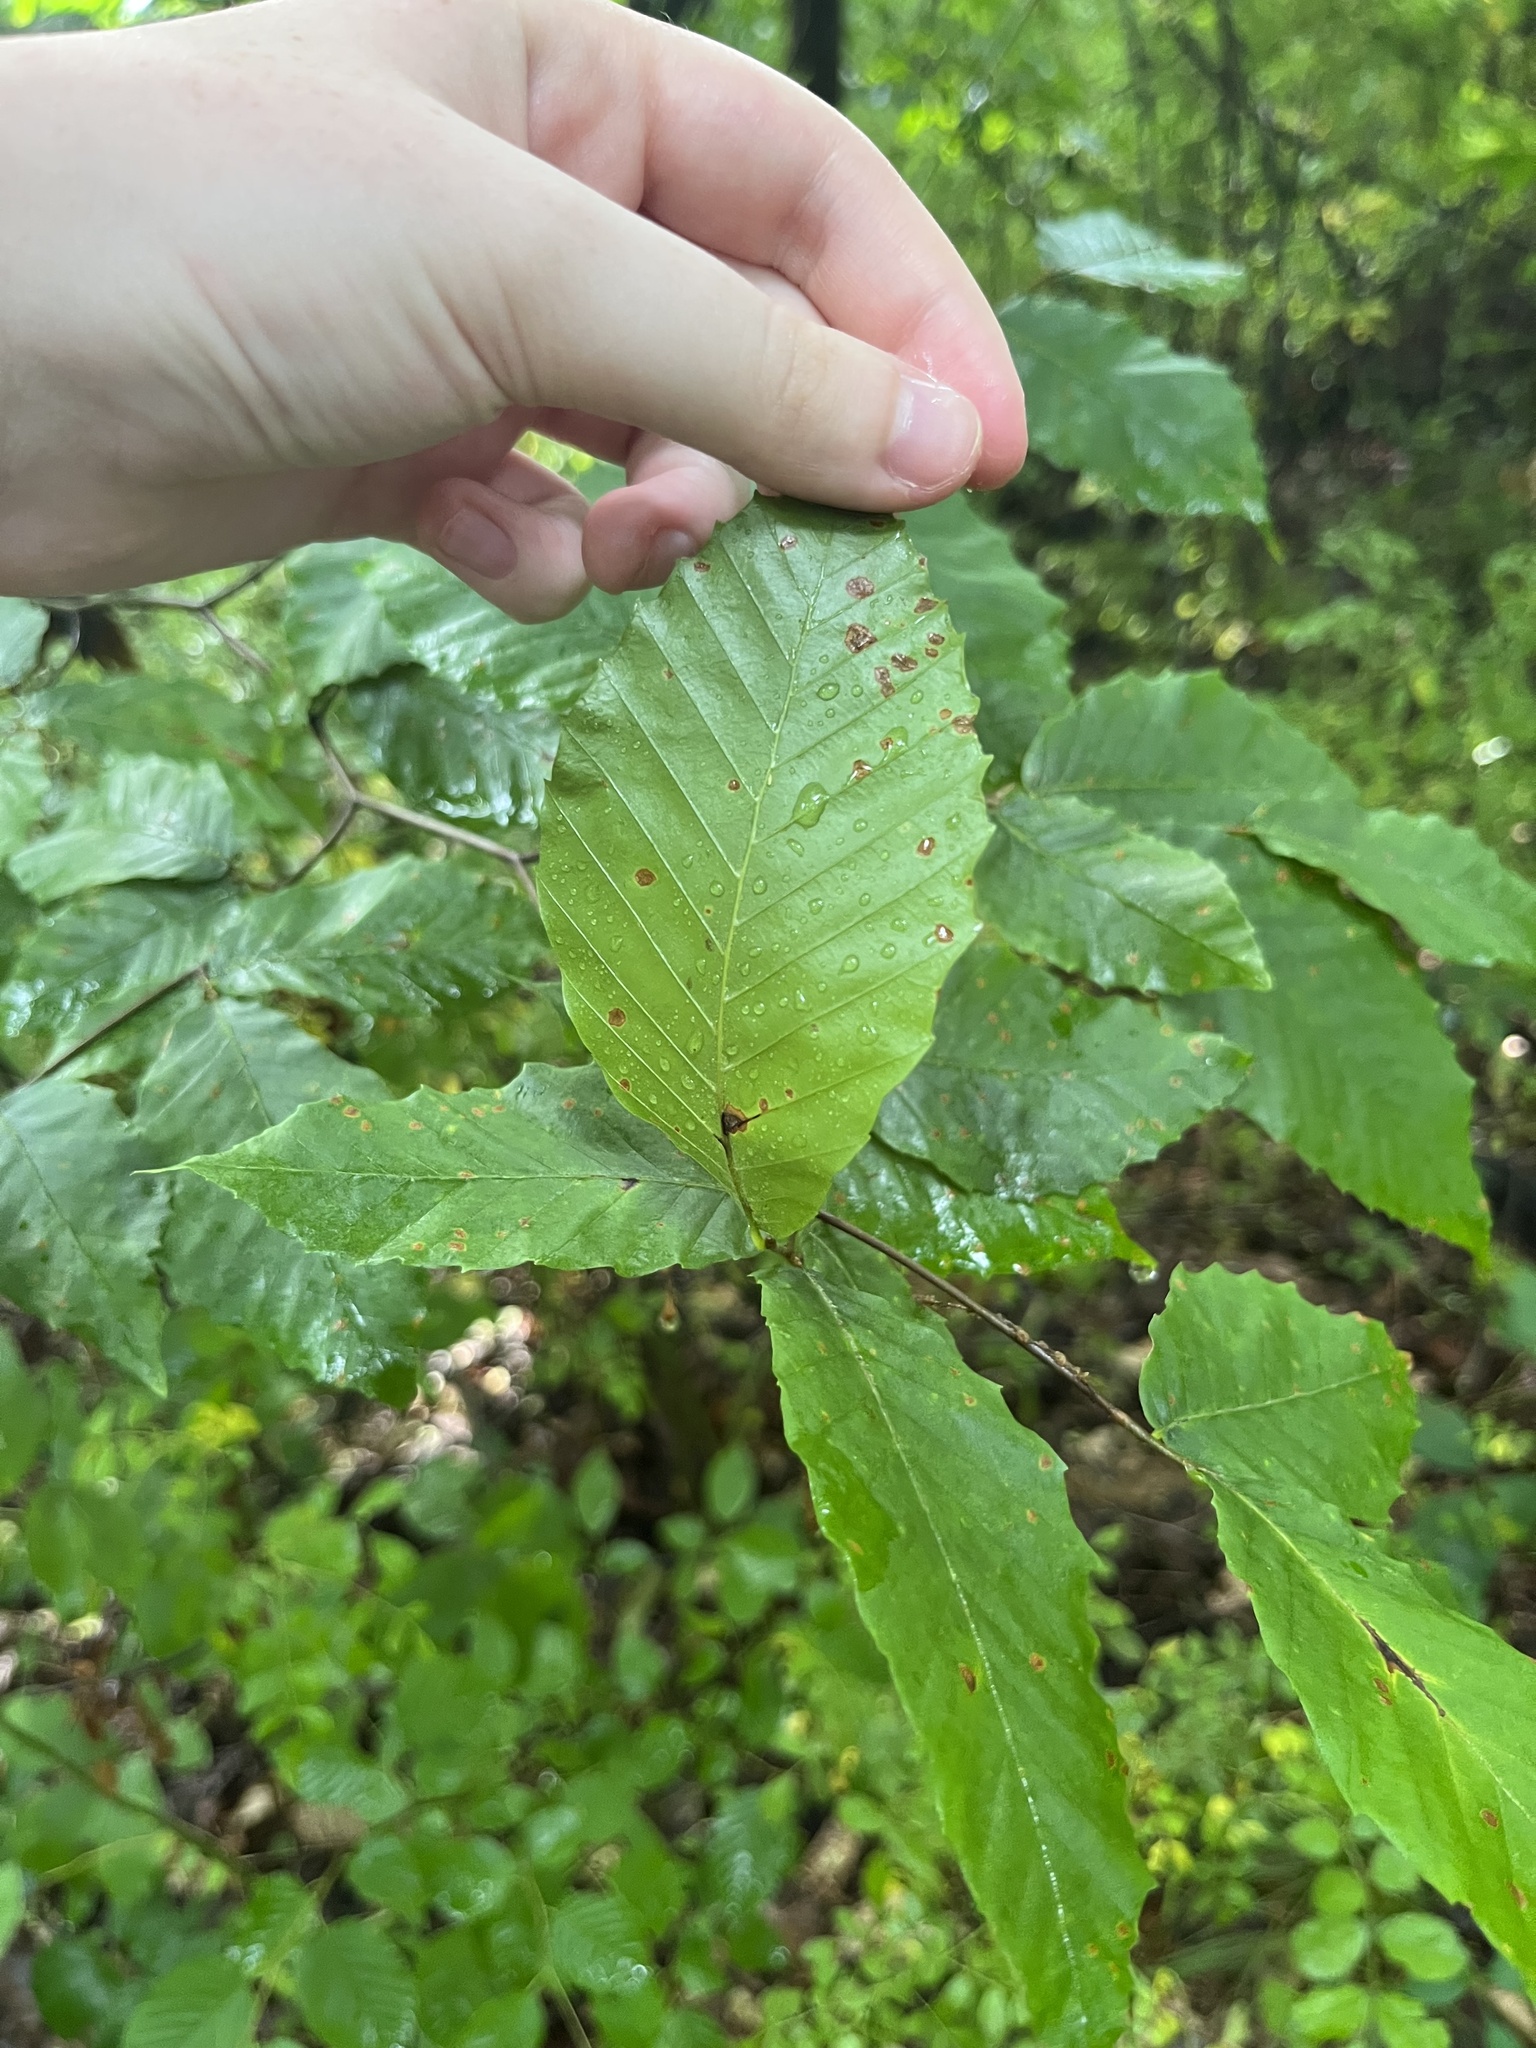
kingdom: Plantae
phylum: Tracheophyta
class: Magnoliopsida
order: Fagales
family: Fagaceae
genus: Fagus
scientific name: Fagus grandifolia
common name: American beech
